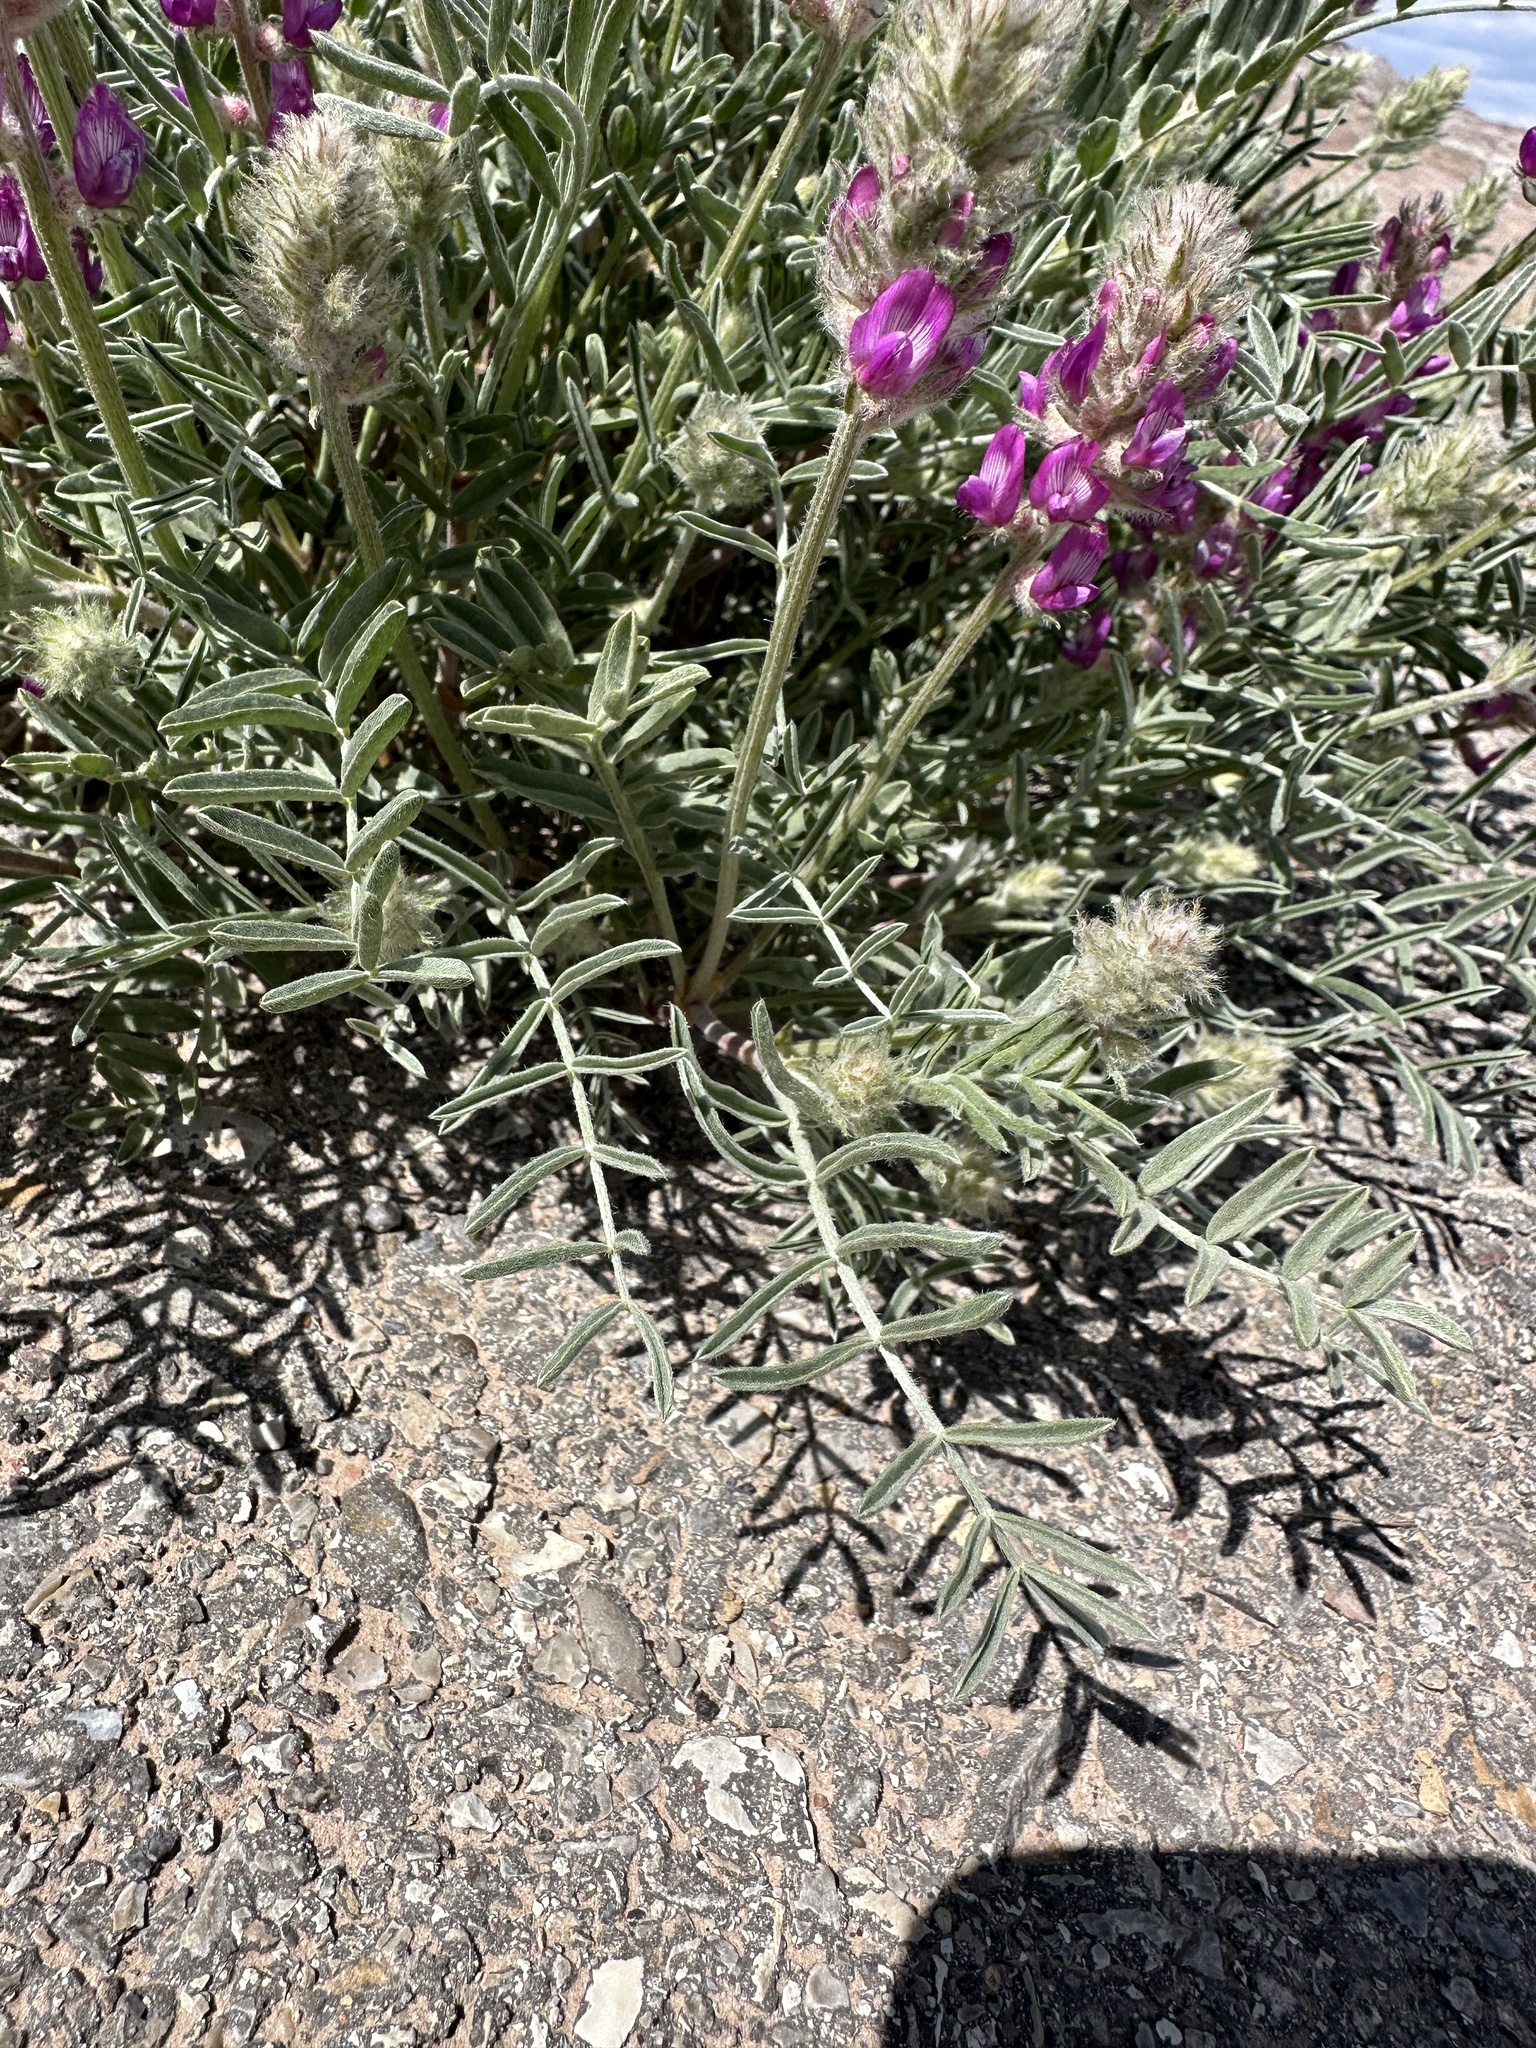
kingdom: Plantae
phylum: Tracheophyta
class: Magnoliopsida
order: Fabales
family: Fabaceae
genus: Astragalus
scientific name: Astragalus flavus
